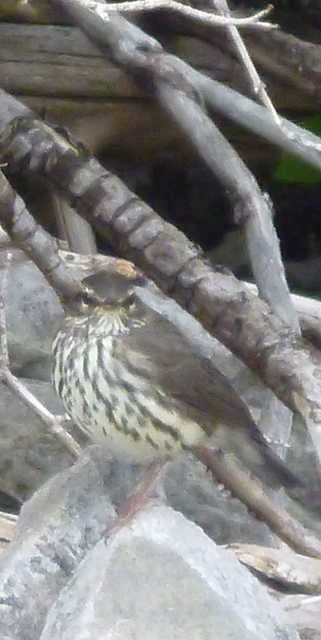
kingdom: Animalia
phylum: Chordata
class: Aves
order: Passeriformes
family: Parulidae
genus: Parkesia
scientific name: Parkesia noveboracensis
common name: Northern waterthrush
